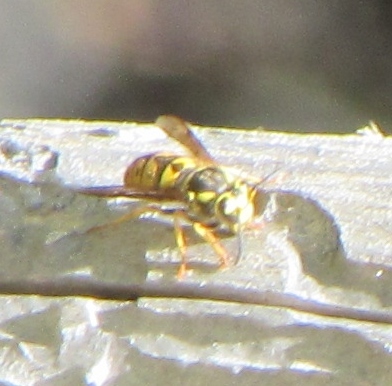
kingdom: Animalia
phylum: Arthropoda
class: Insecta
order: Hymenoptera
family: Vespidae
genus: Vespula
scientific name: Vespula pensylvanica
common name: Western yellowjacket
